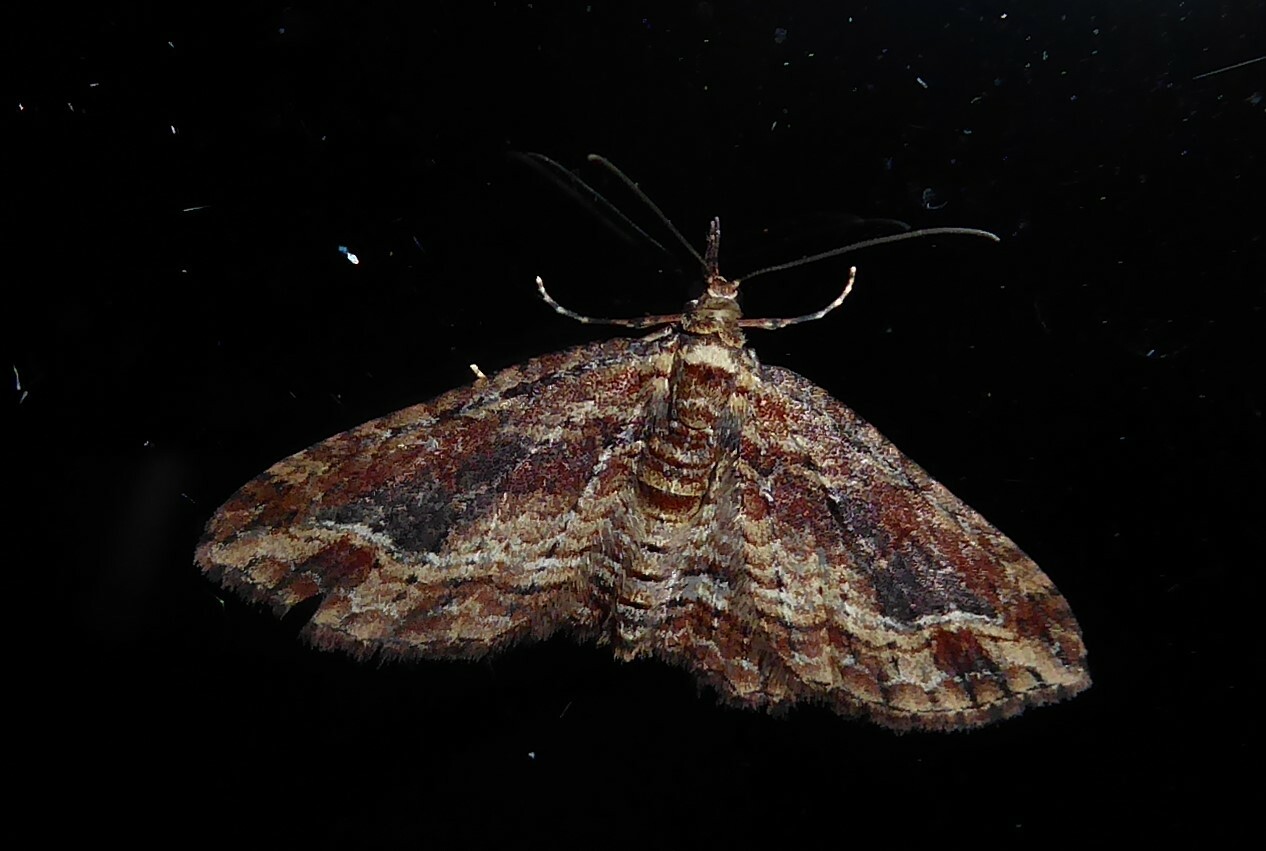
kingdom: Animalia
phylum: Arthropoda
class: Insecta
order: Lepidoptera
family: Geometridae
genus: Chloroclystis
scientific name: Chloroclystis filata
